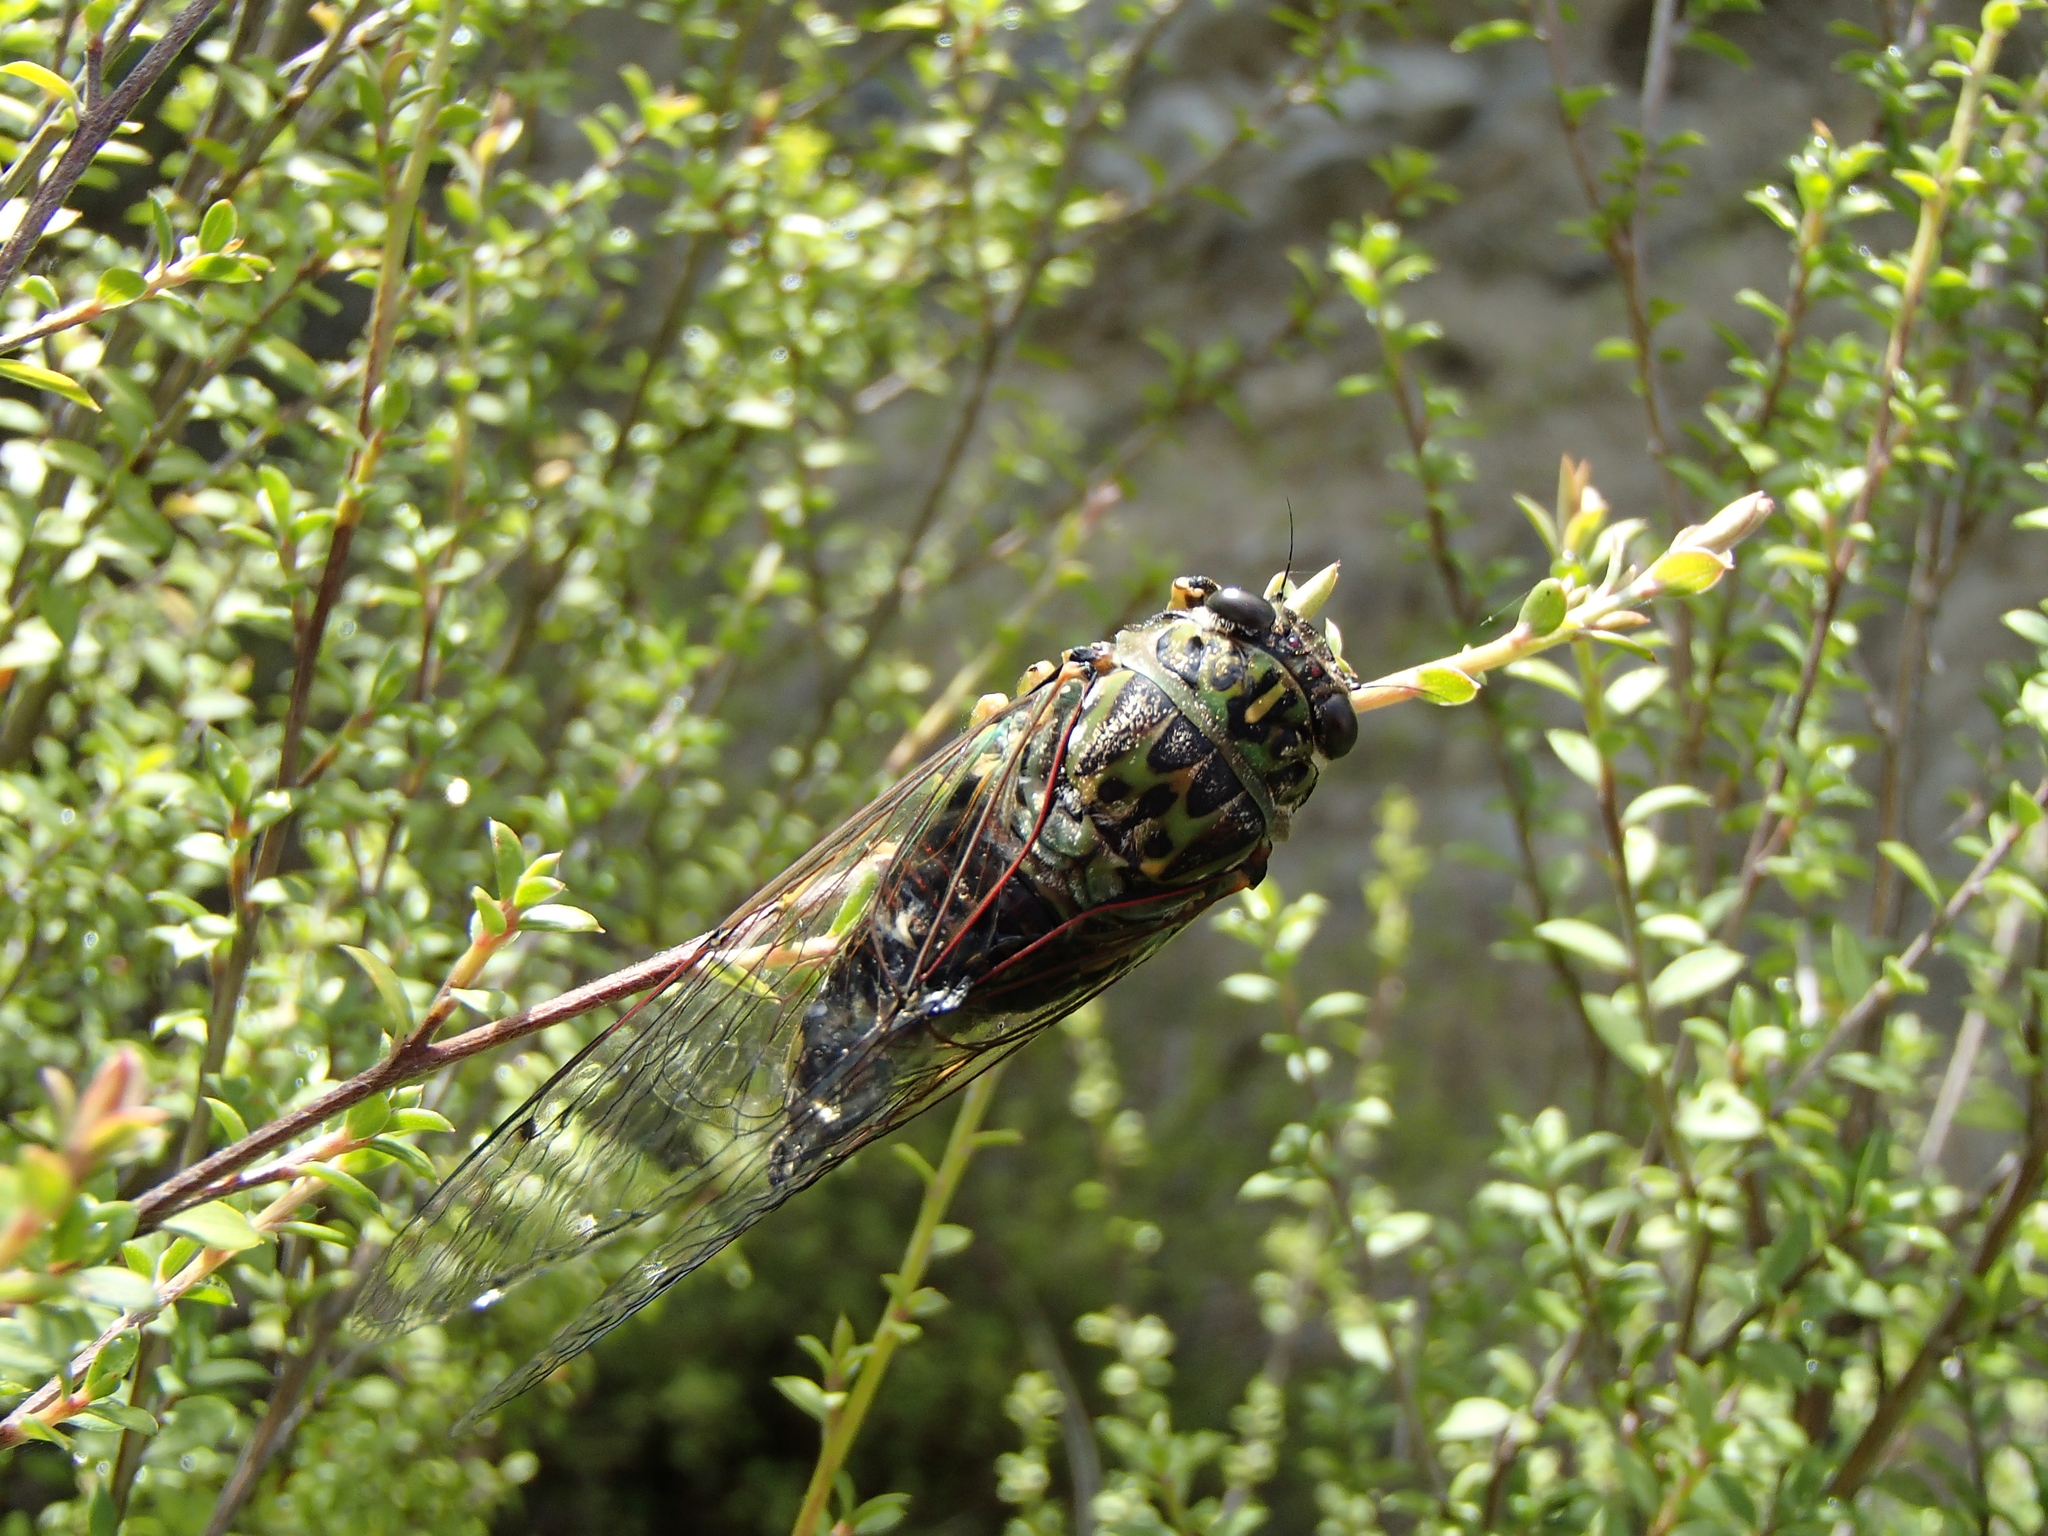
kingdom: Animalia
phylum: Arthropoda
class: Insecta
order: Hemiptera
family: Cicadidae
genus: Amphipsalta
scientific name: Amphipsalta zelandica
